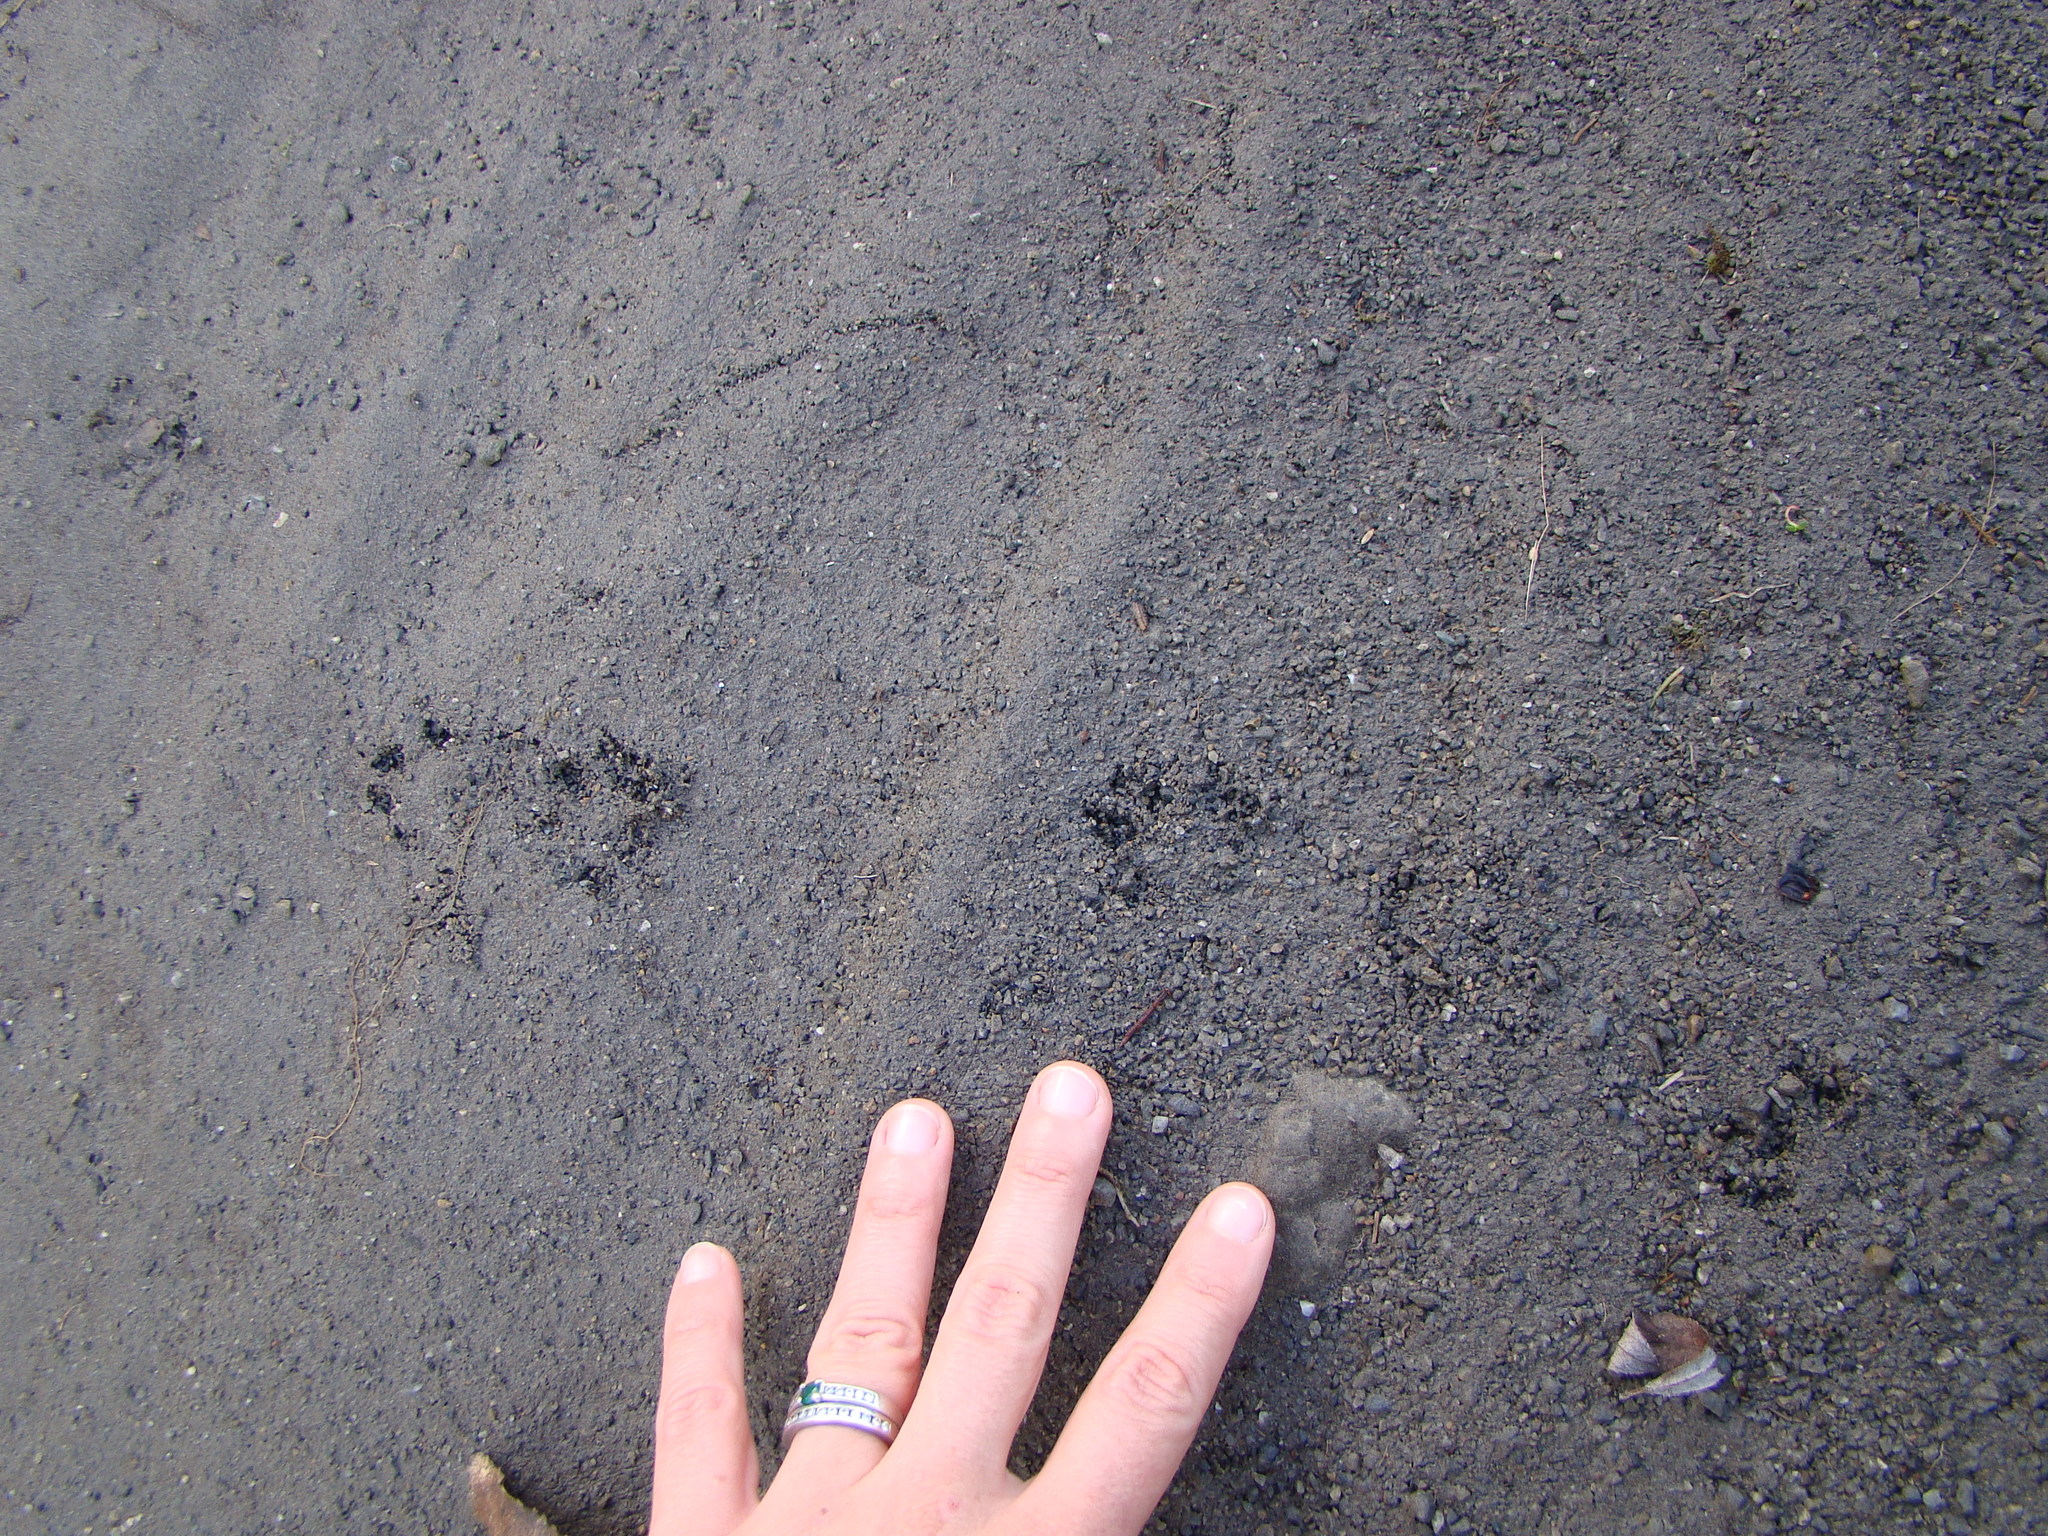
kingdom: Animalia
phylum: Chordata
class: Mammalia
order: Carnivora
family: Mustelidae
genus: Mustela
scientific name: Mustela erminea
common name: Stoat
